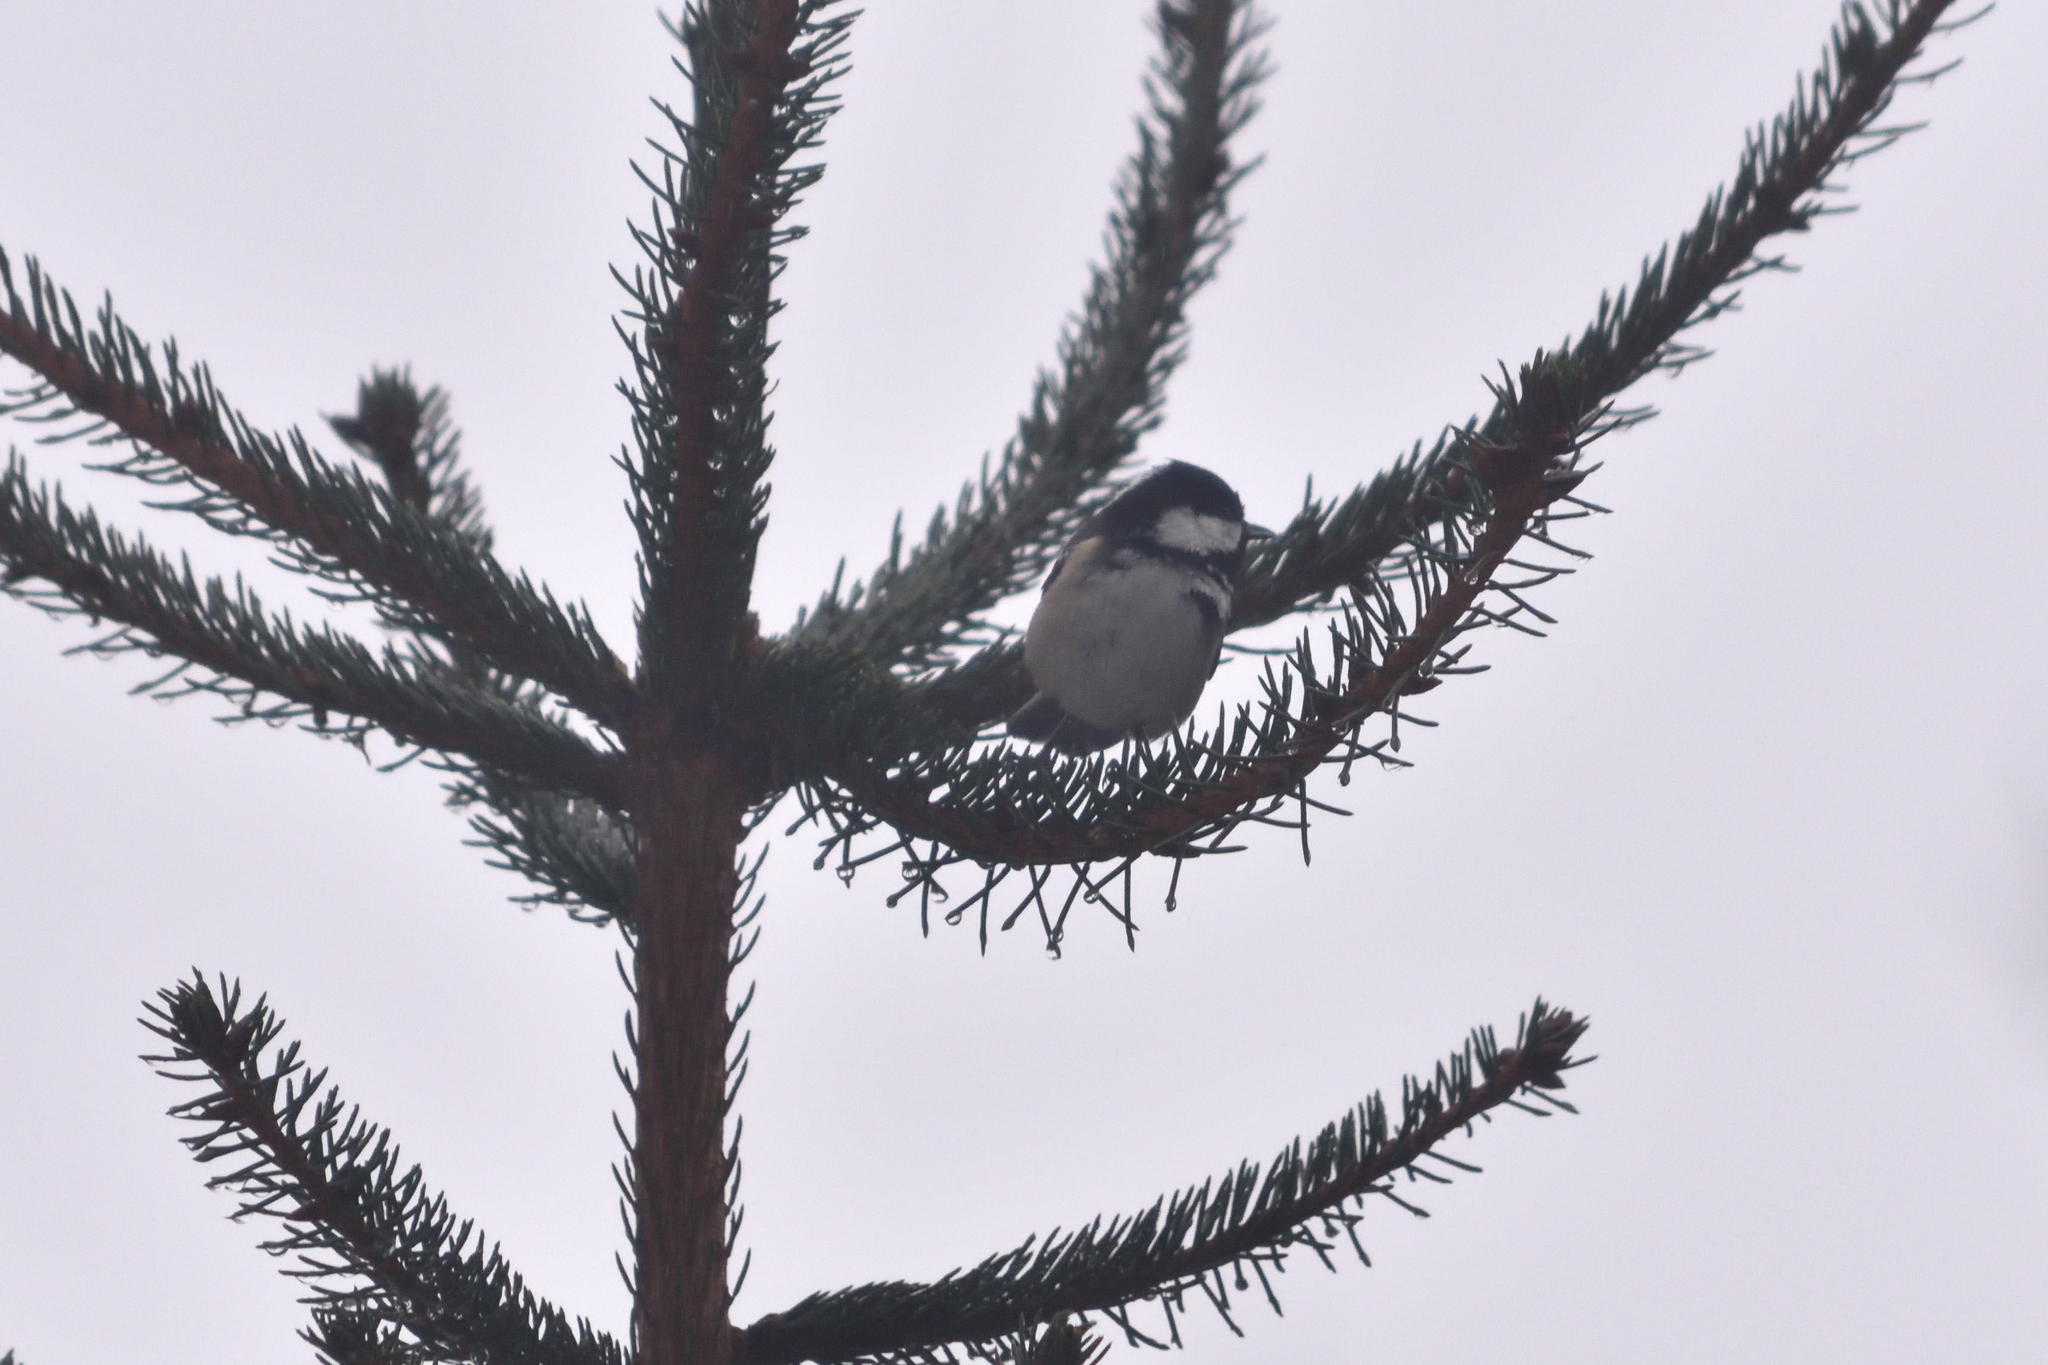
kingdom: Animalia
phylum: Chordata
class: Aves
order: Passeriformes
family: Paridae
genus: Periparus
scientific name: Periparus ater
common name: Coal tit
